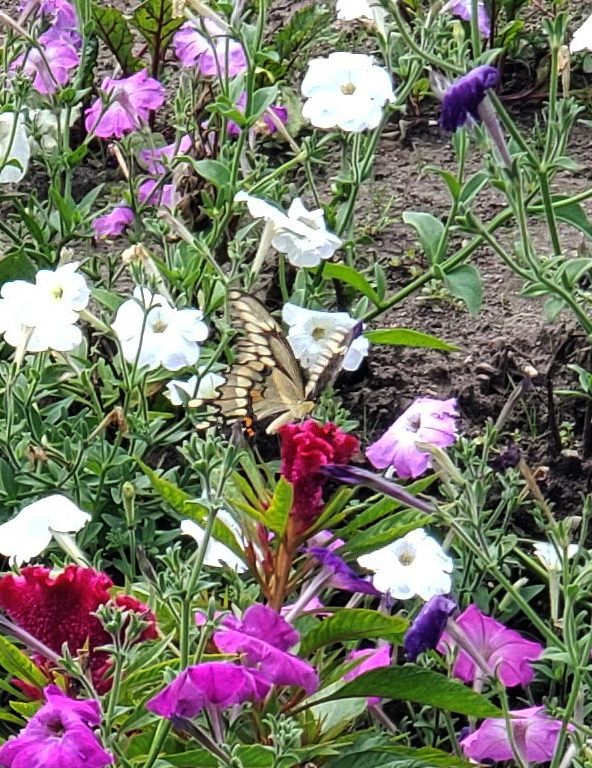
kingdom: Animalia
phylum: Arthropoda
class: Insecta
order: Lepidoptera
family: Papilionidae
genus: Papilio
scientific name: Papilio cresphontes
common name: Giant swallowtail
